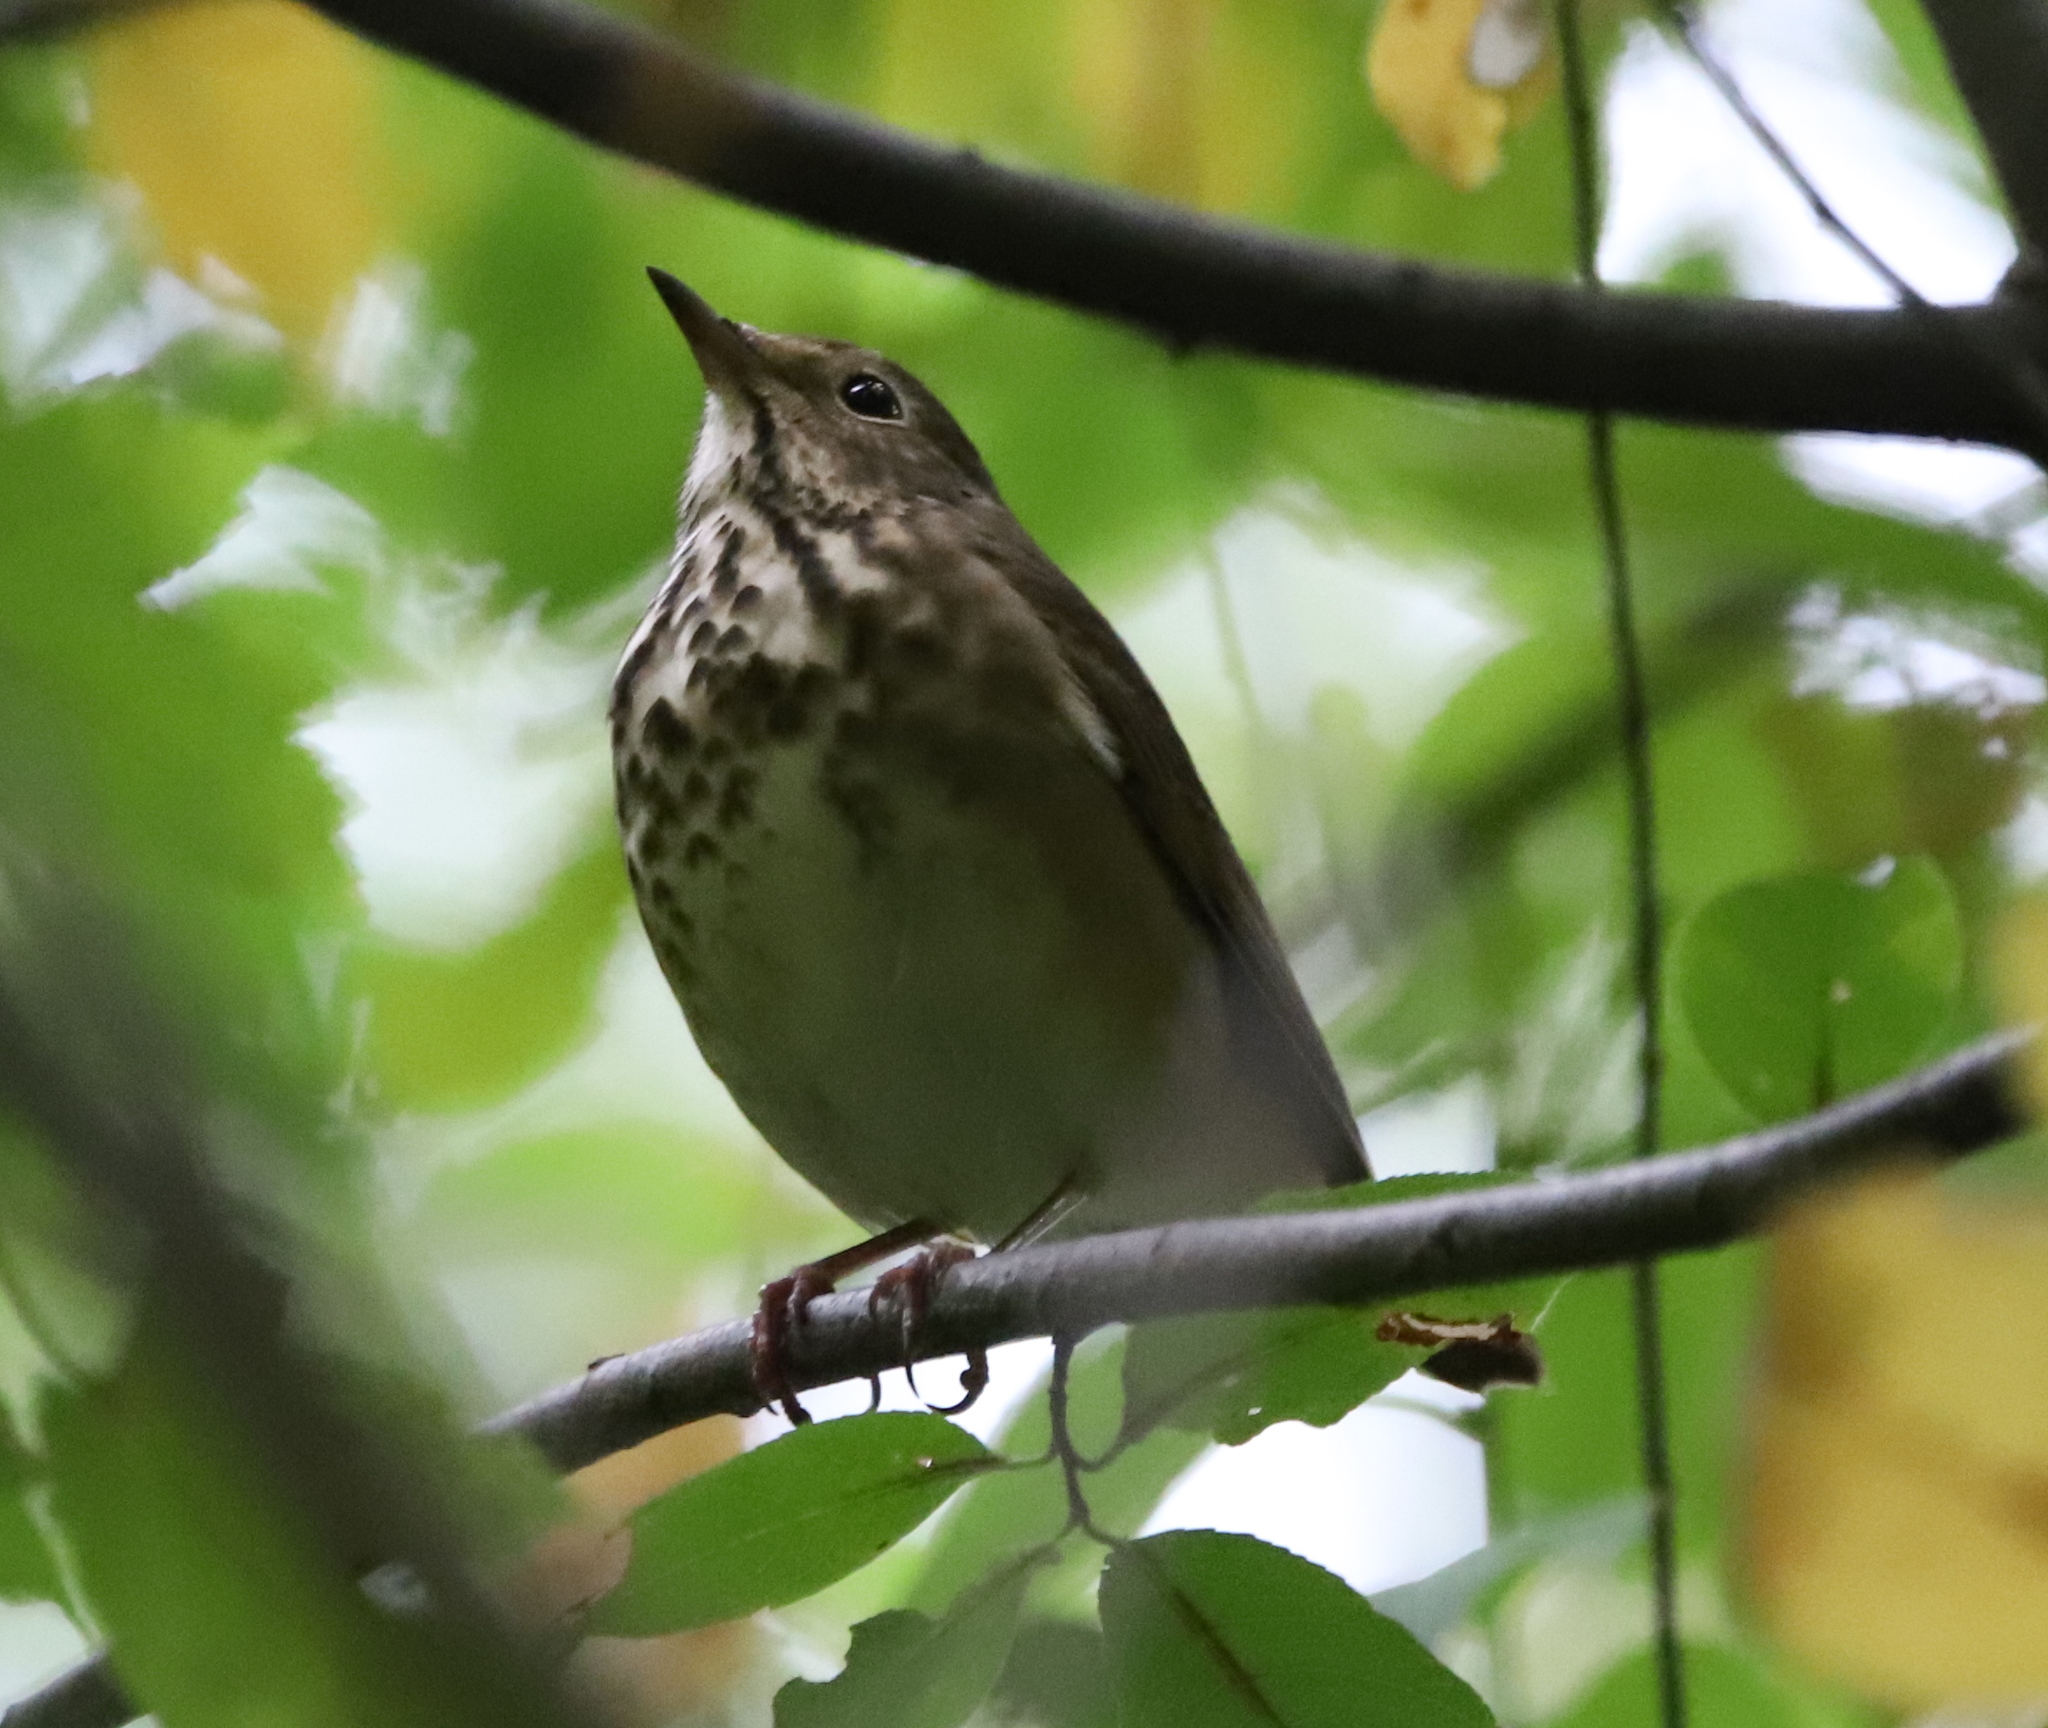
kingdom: Animalia
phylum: Chordata
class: Aves
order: Passeriformes
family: Turdidae
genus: Catharus
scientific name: Catharus guttatus
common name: Hermit thrush
